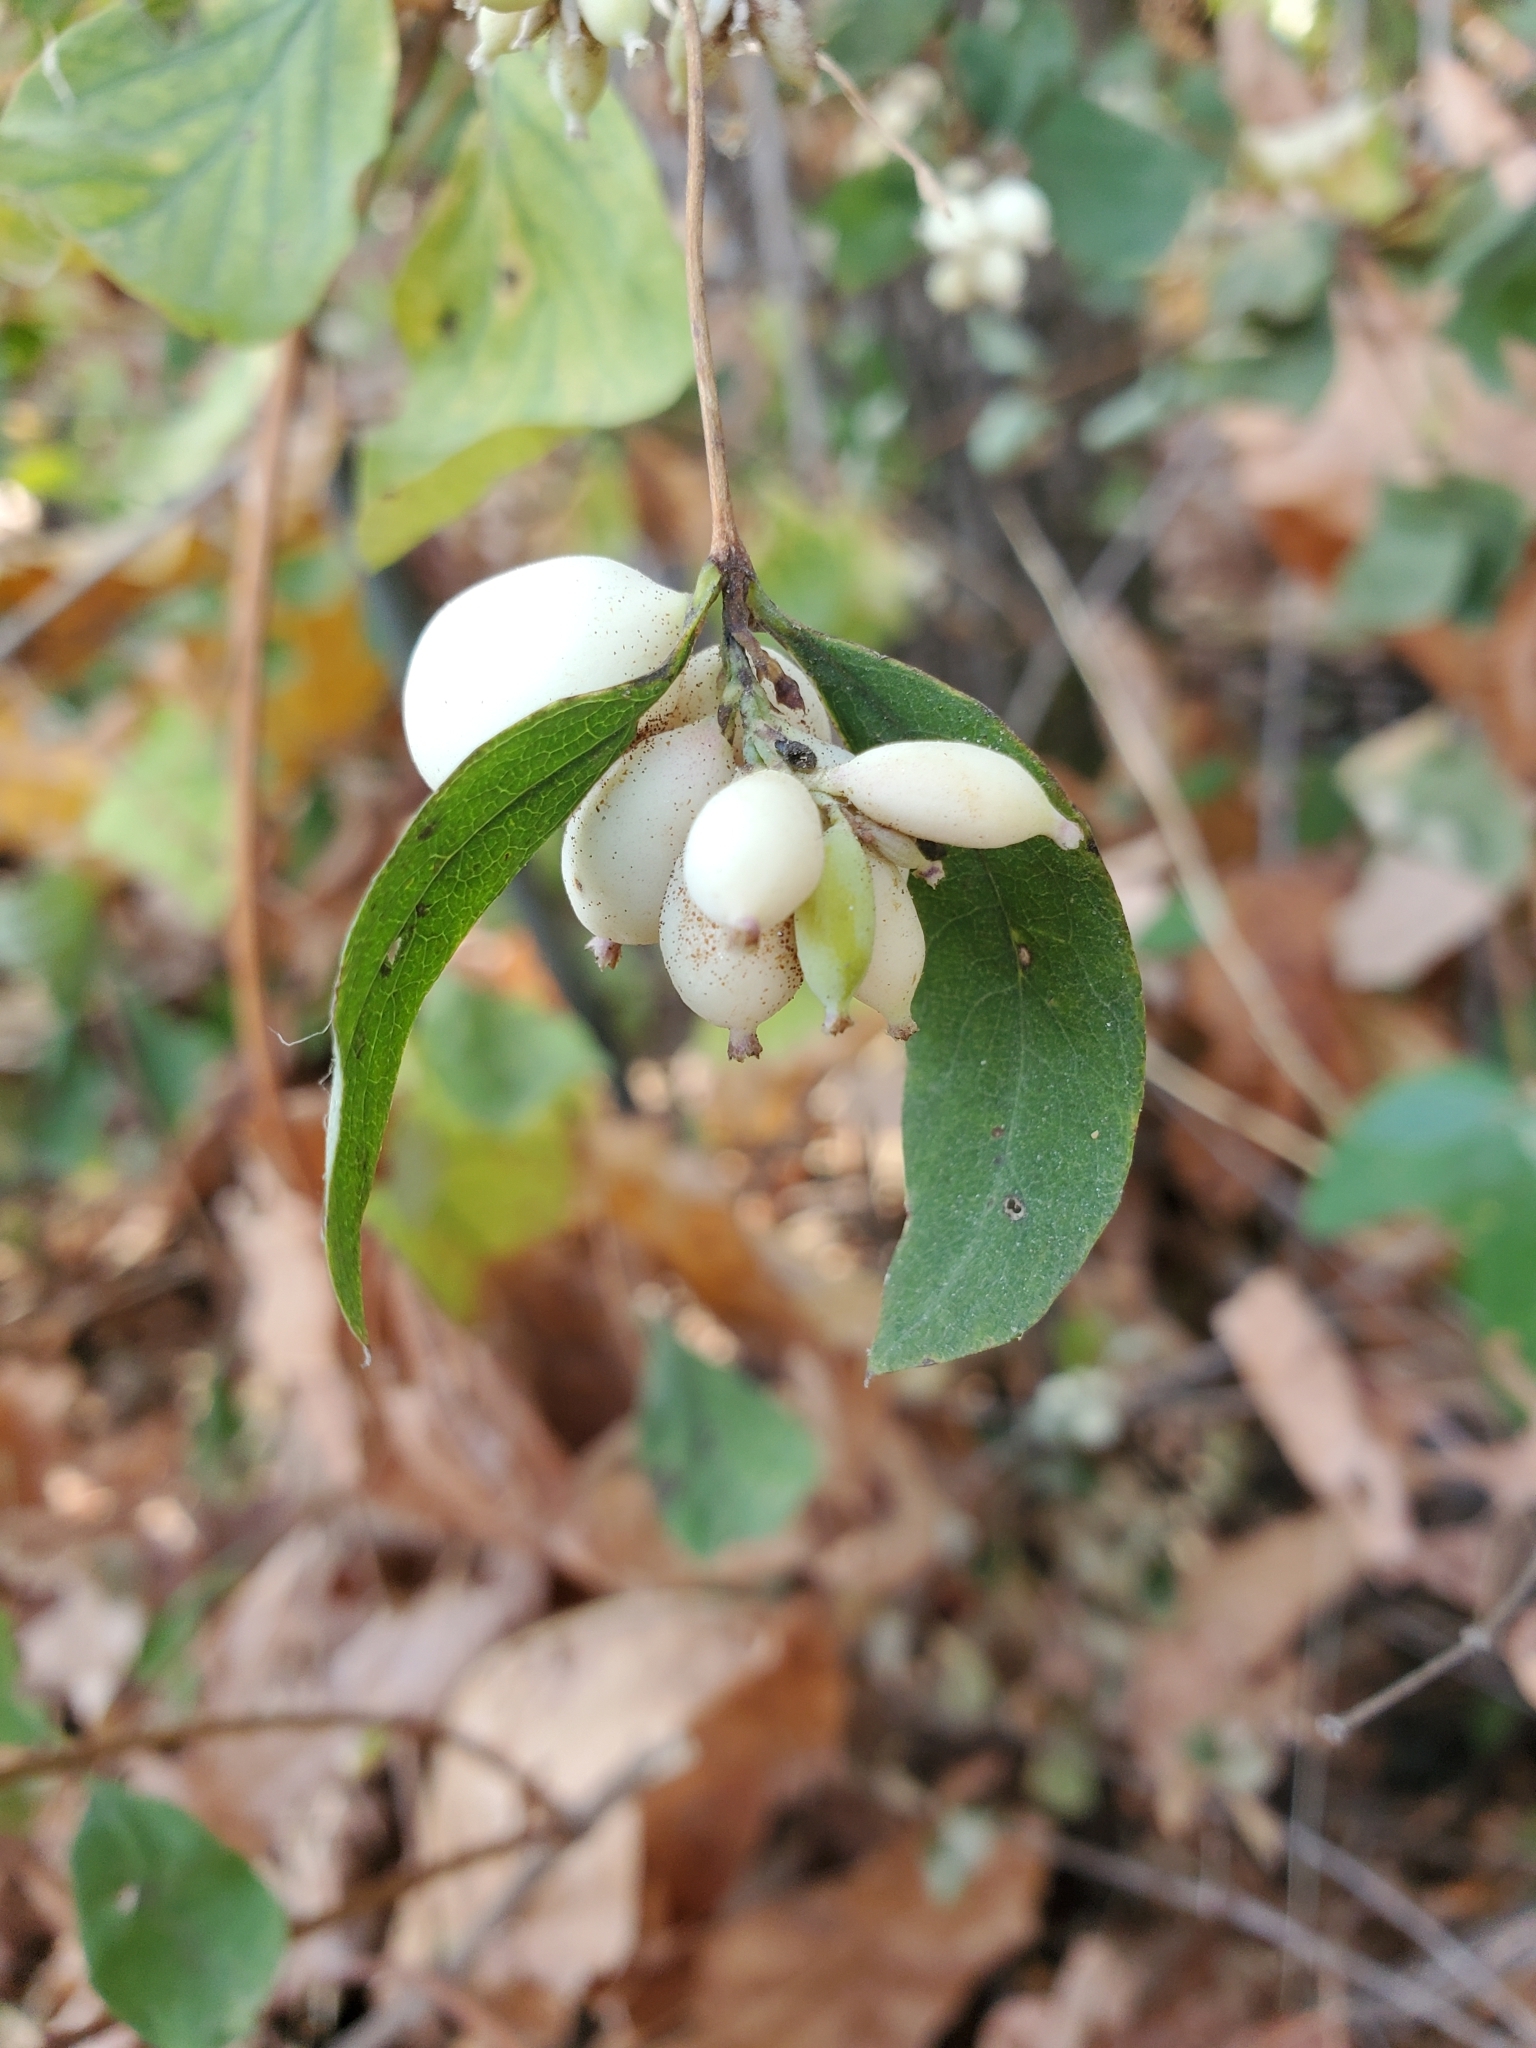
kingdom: Plantae
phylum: Tracheophyta
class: Magnoliopsida
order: Dipsacales
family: Caprifoliaceae
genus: Symphoricarpos
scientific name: Symphoricarpos albus
